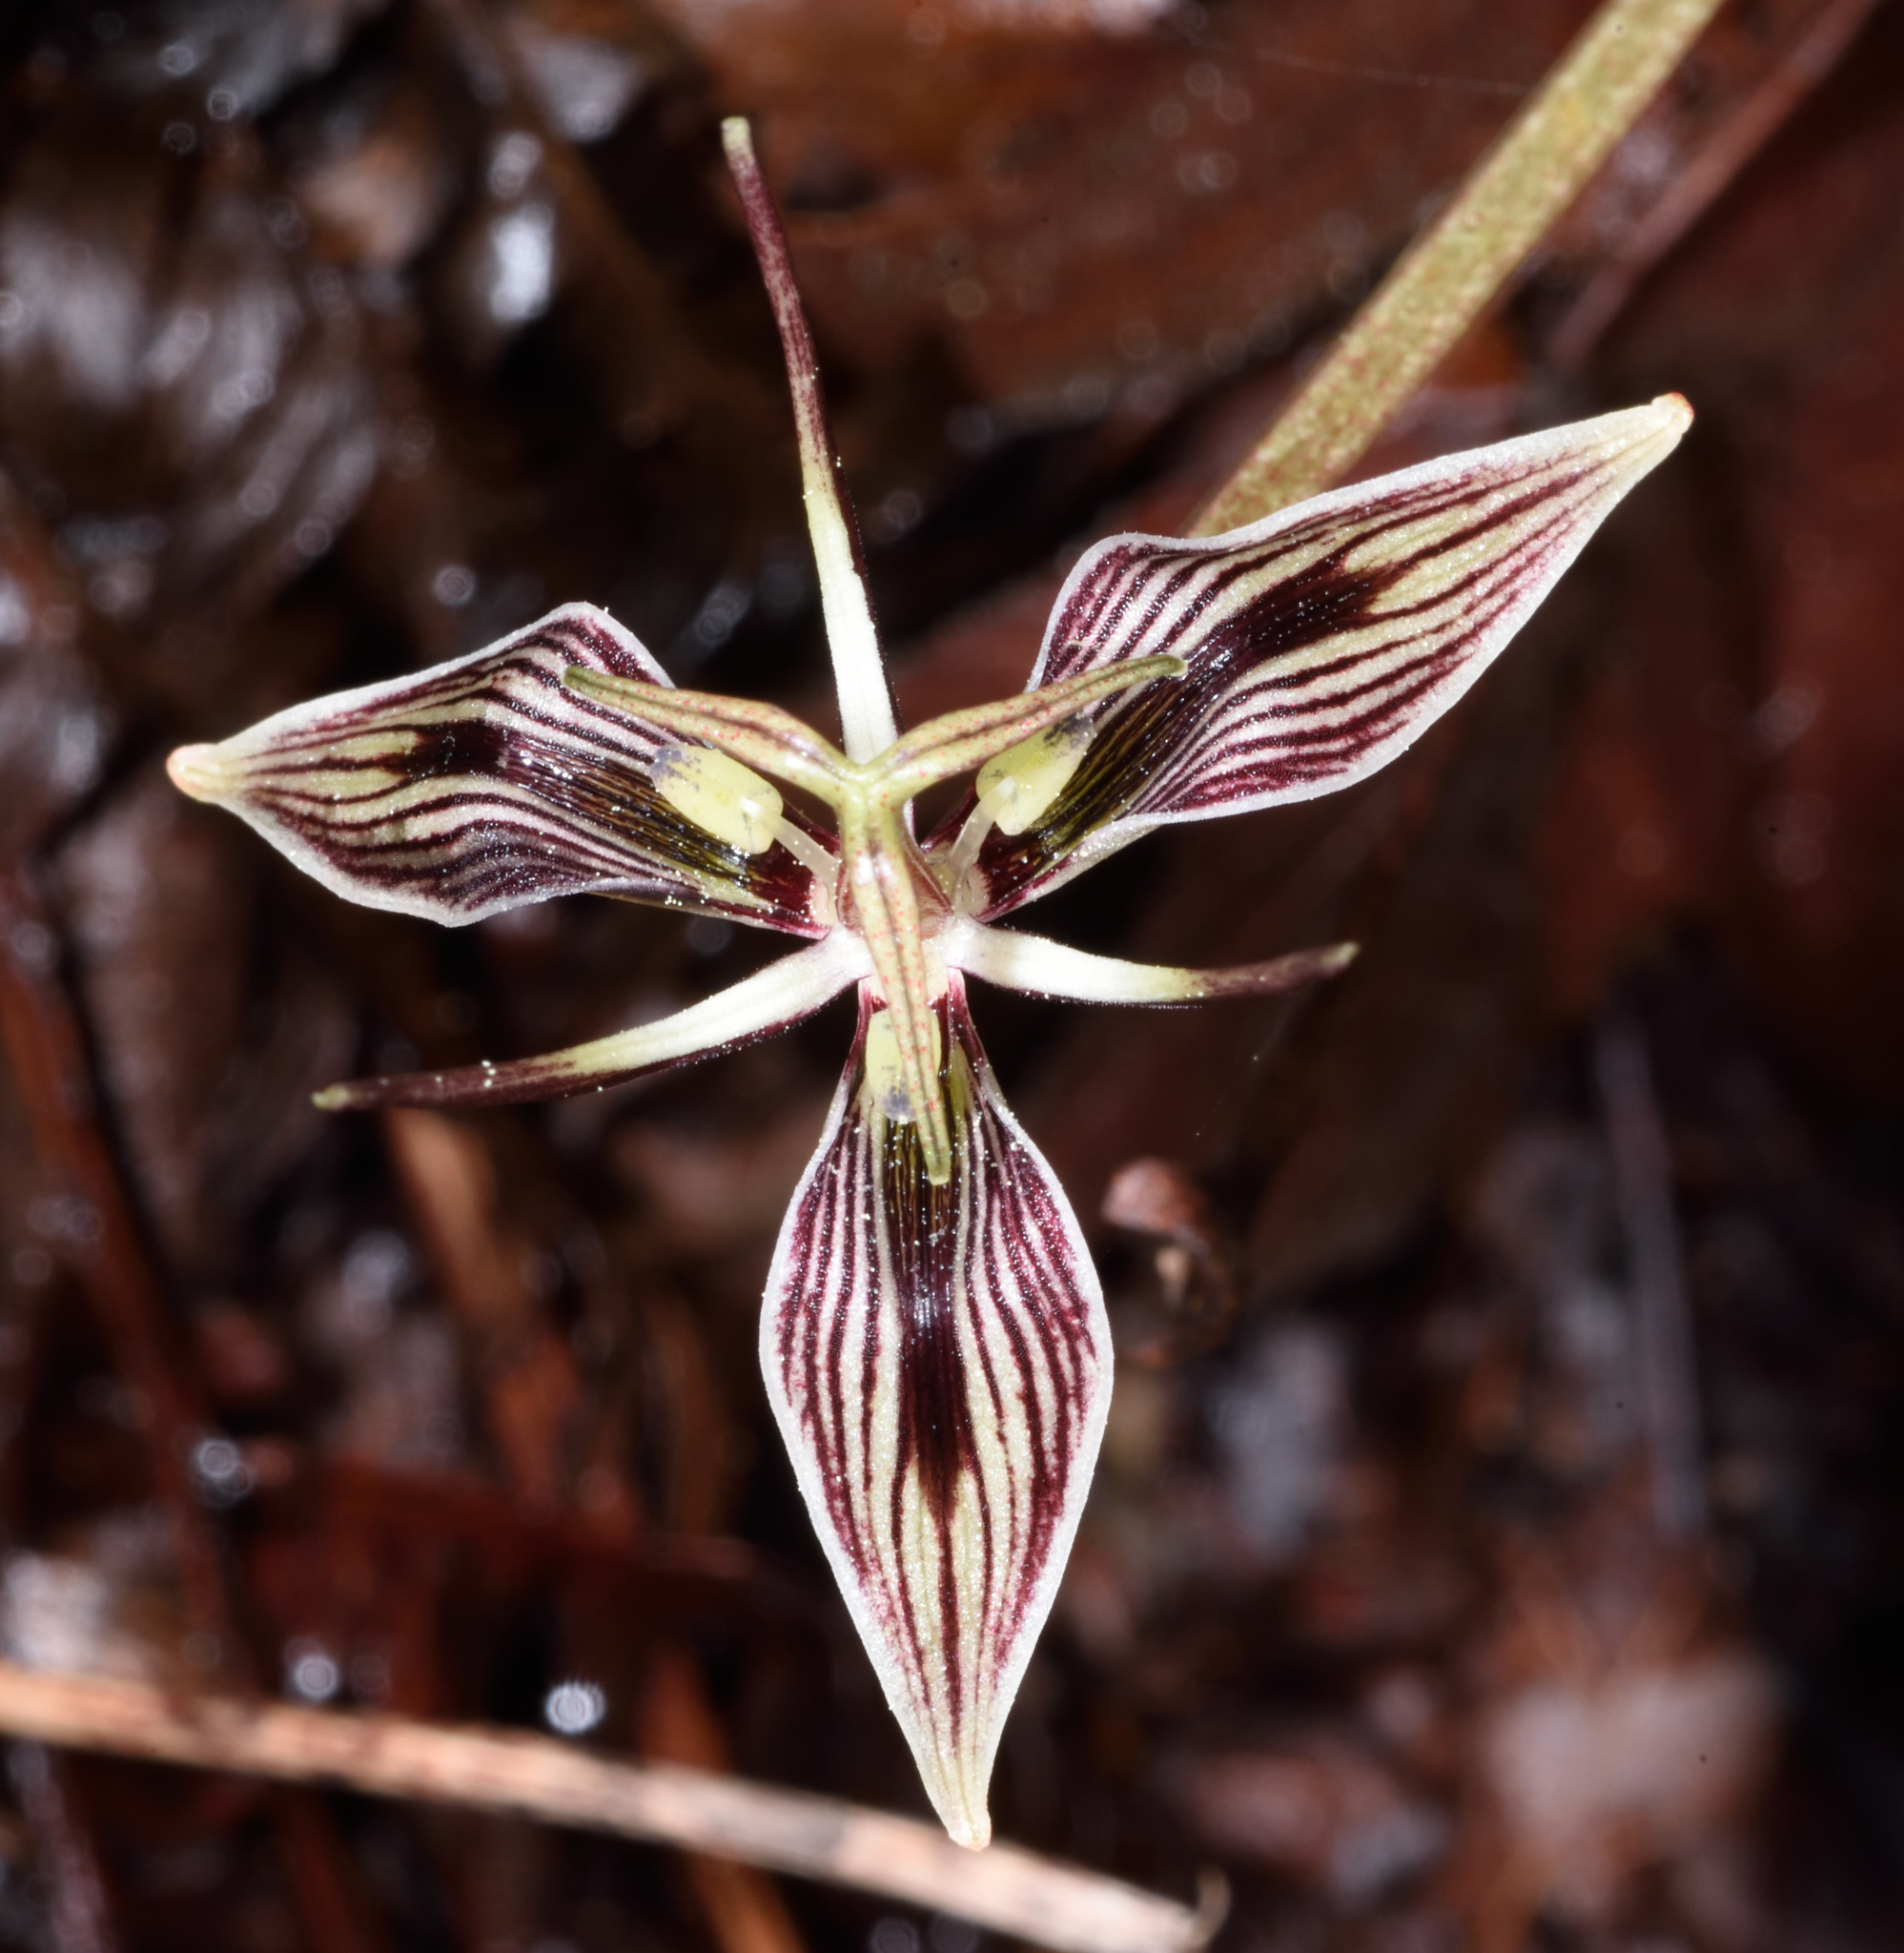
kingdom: Plantae
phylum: Tracheophyta
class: Liliopsida
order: Liliales
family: Liliaceae
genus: Scoliopus
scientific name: Scoliopus bigelovii
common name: Foetid adder's-tongue
